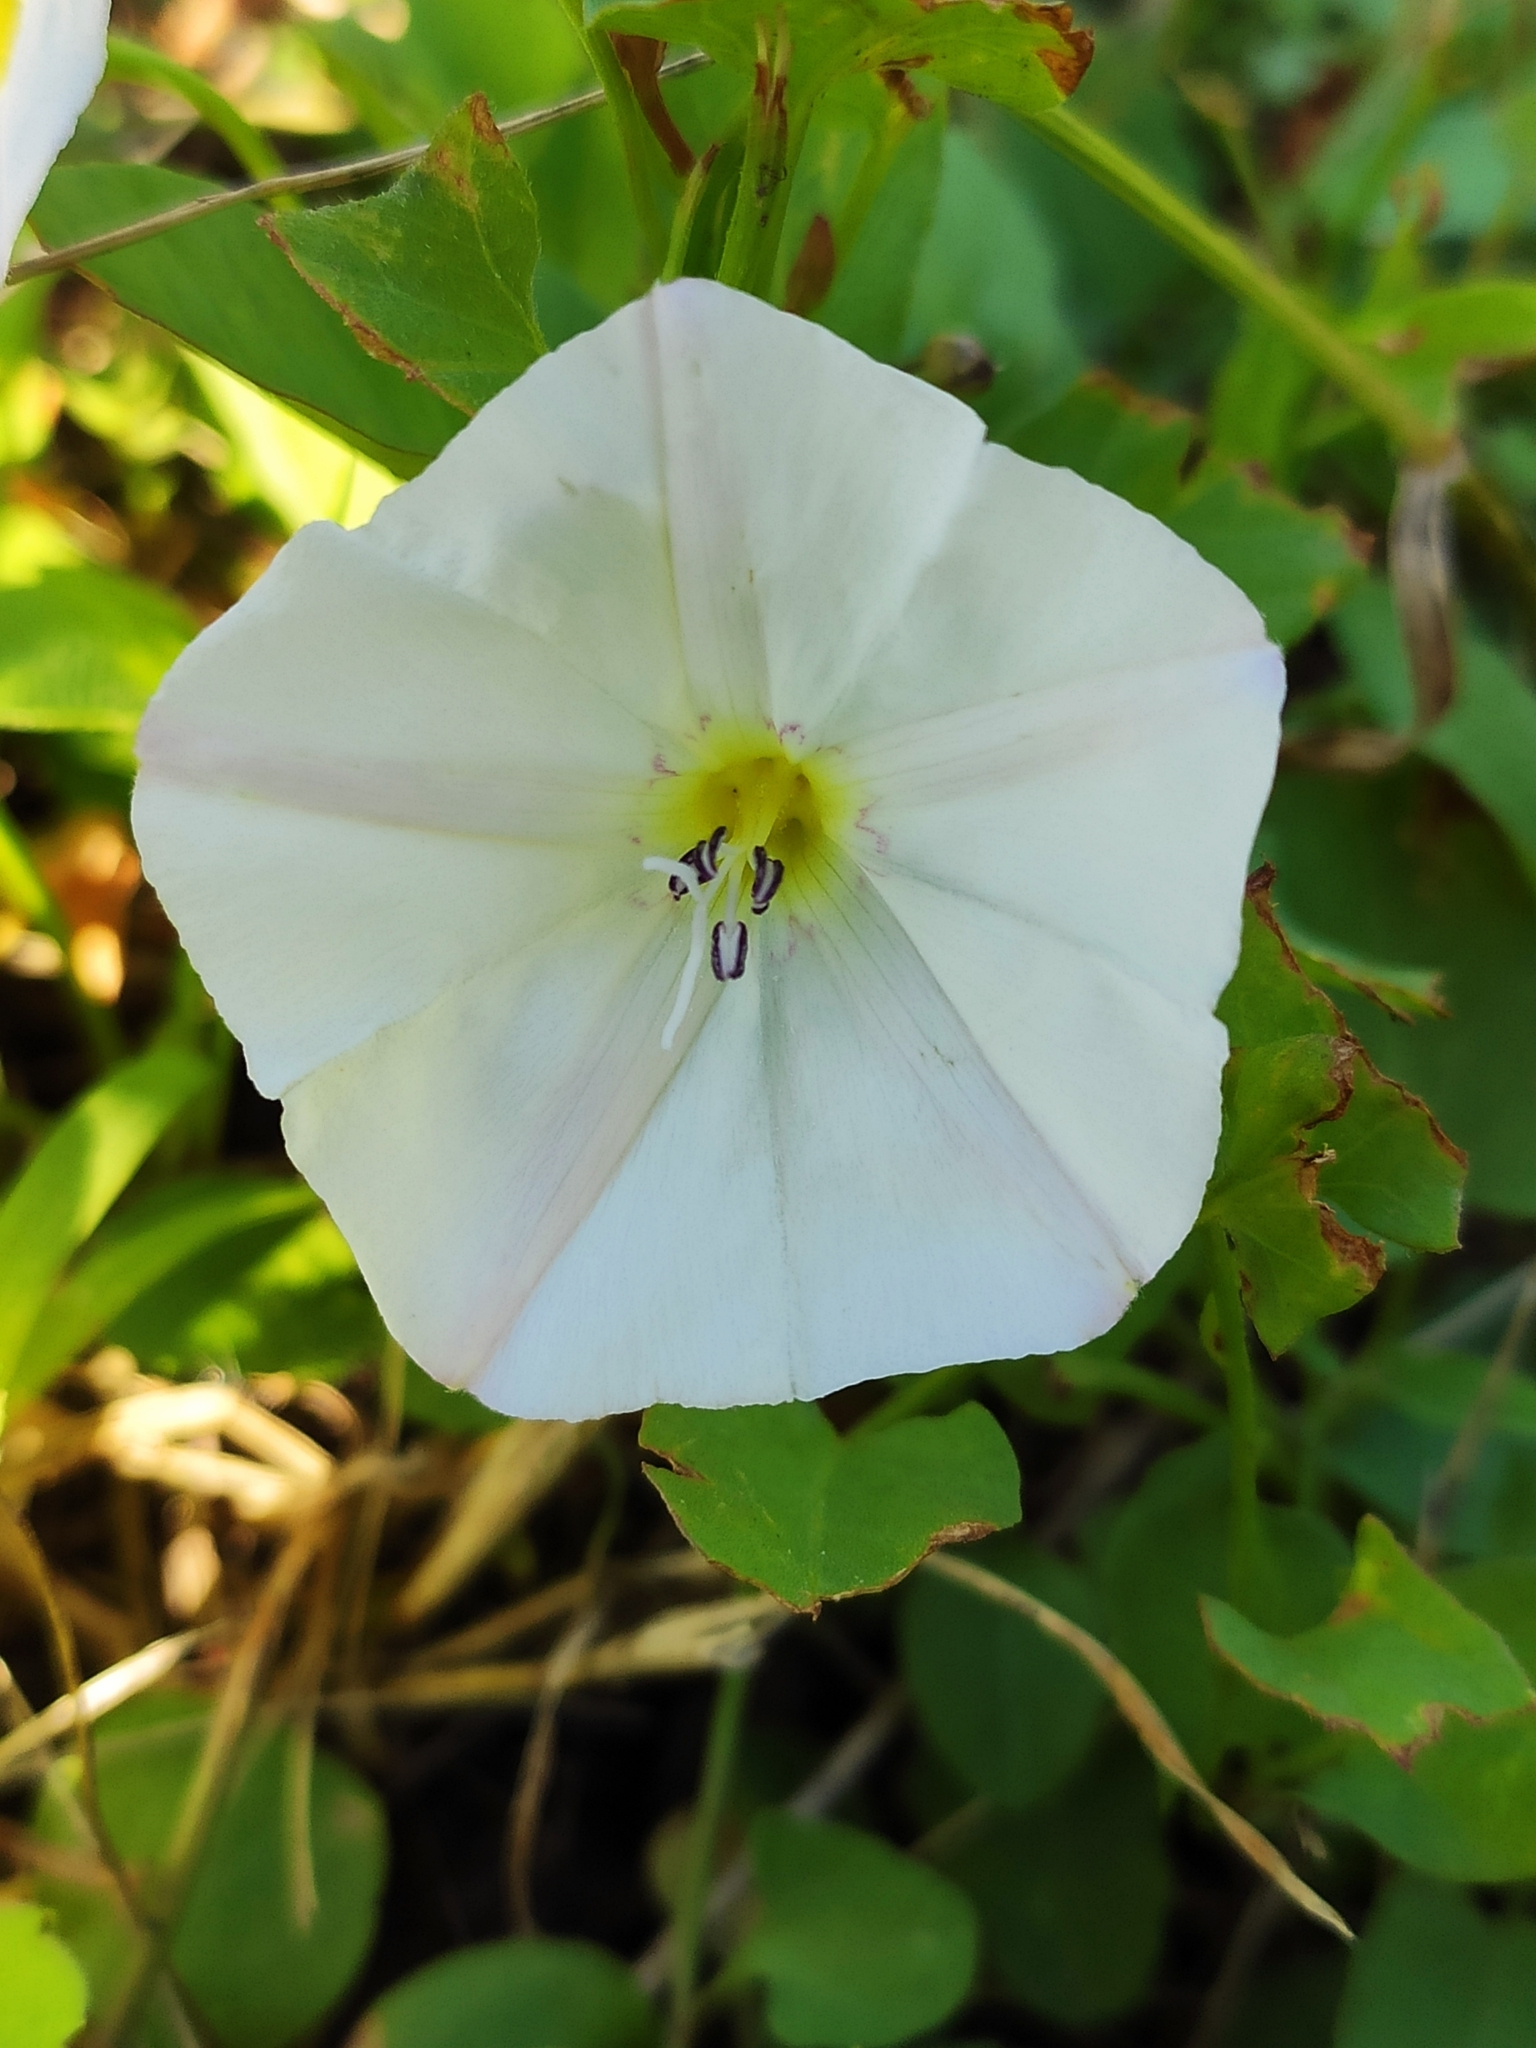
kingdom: Plantae
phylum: Tracheophyta
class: Magnoliopsida
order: Solanales
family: Convolvulaceae
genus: Convolvulus
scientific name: Convolvulus arvensis
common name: Field bindweed
